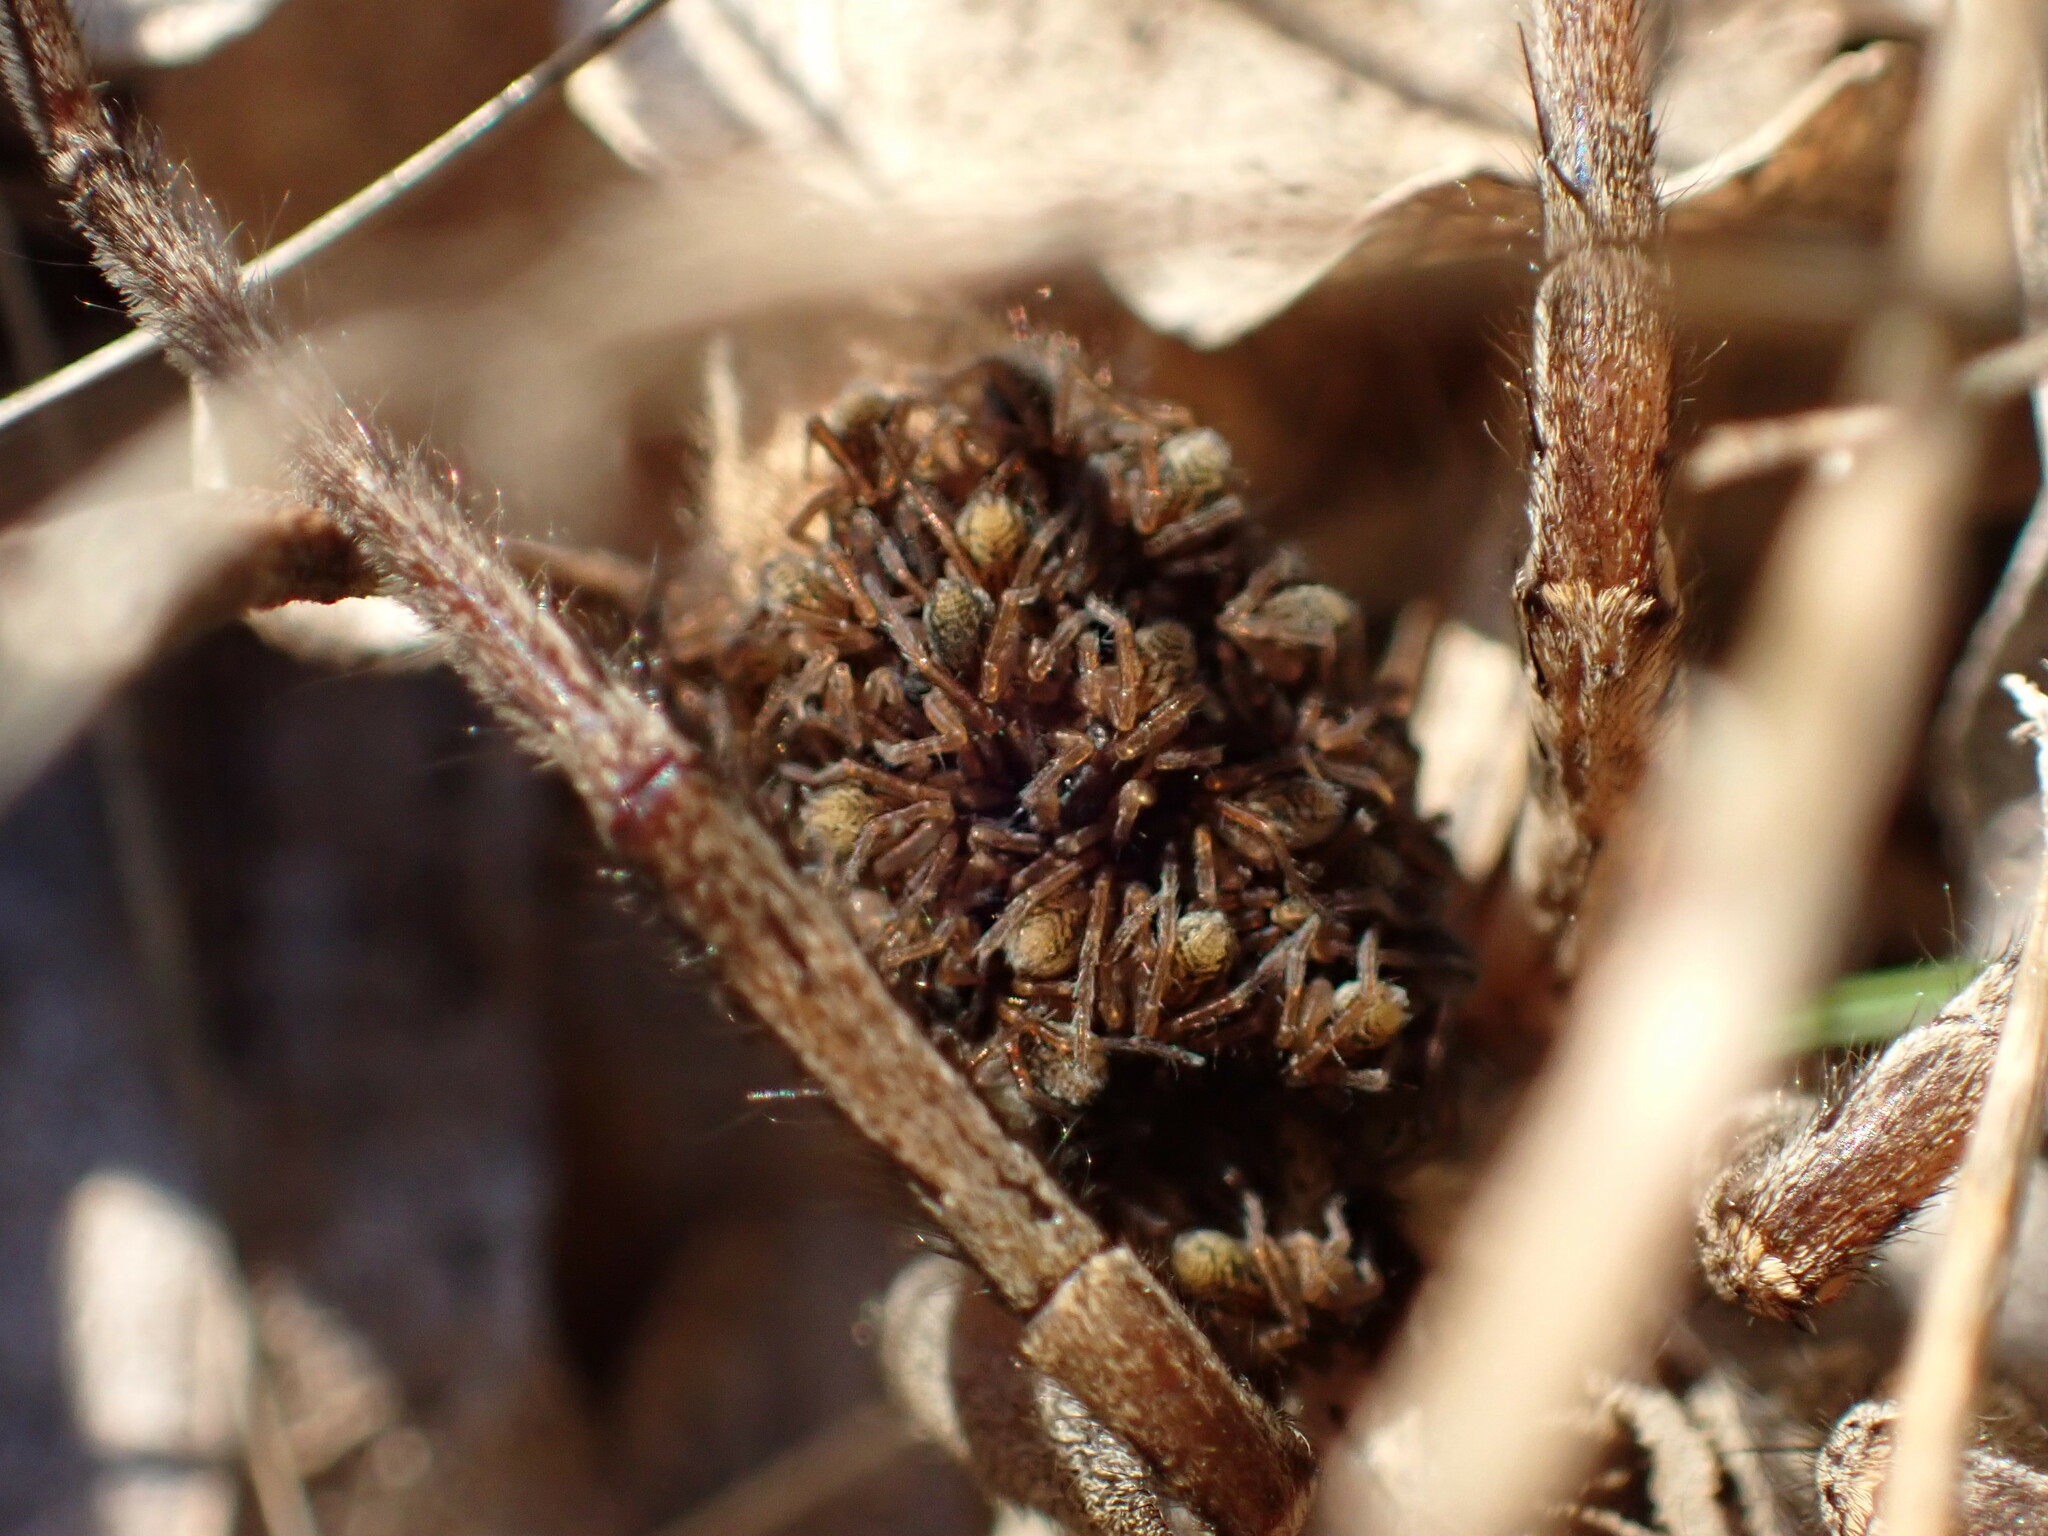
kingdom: Animalia
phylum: Arthropoda
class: Arachnida
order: Araneae
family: Lycosidae
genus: Hogna
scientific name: Hogna radiata
